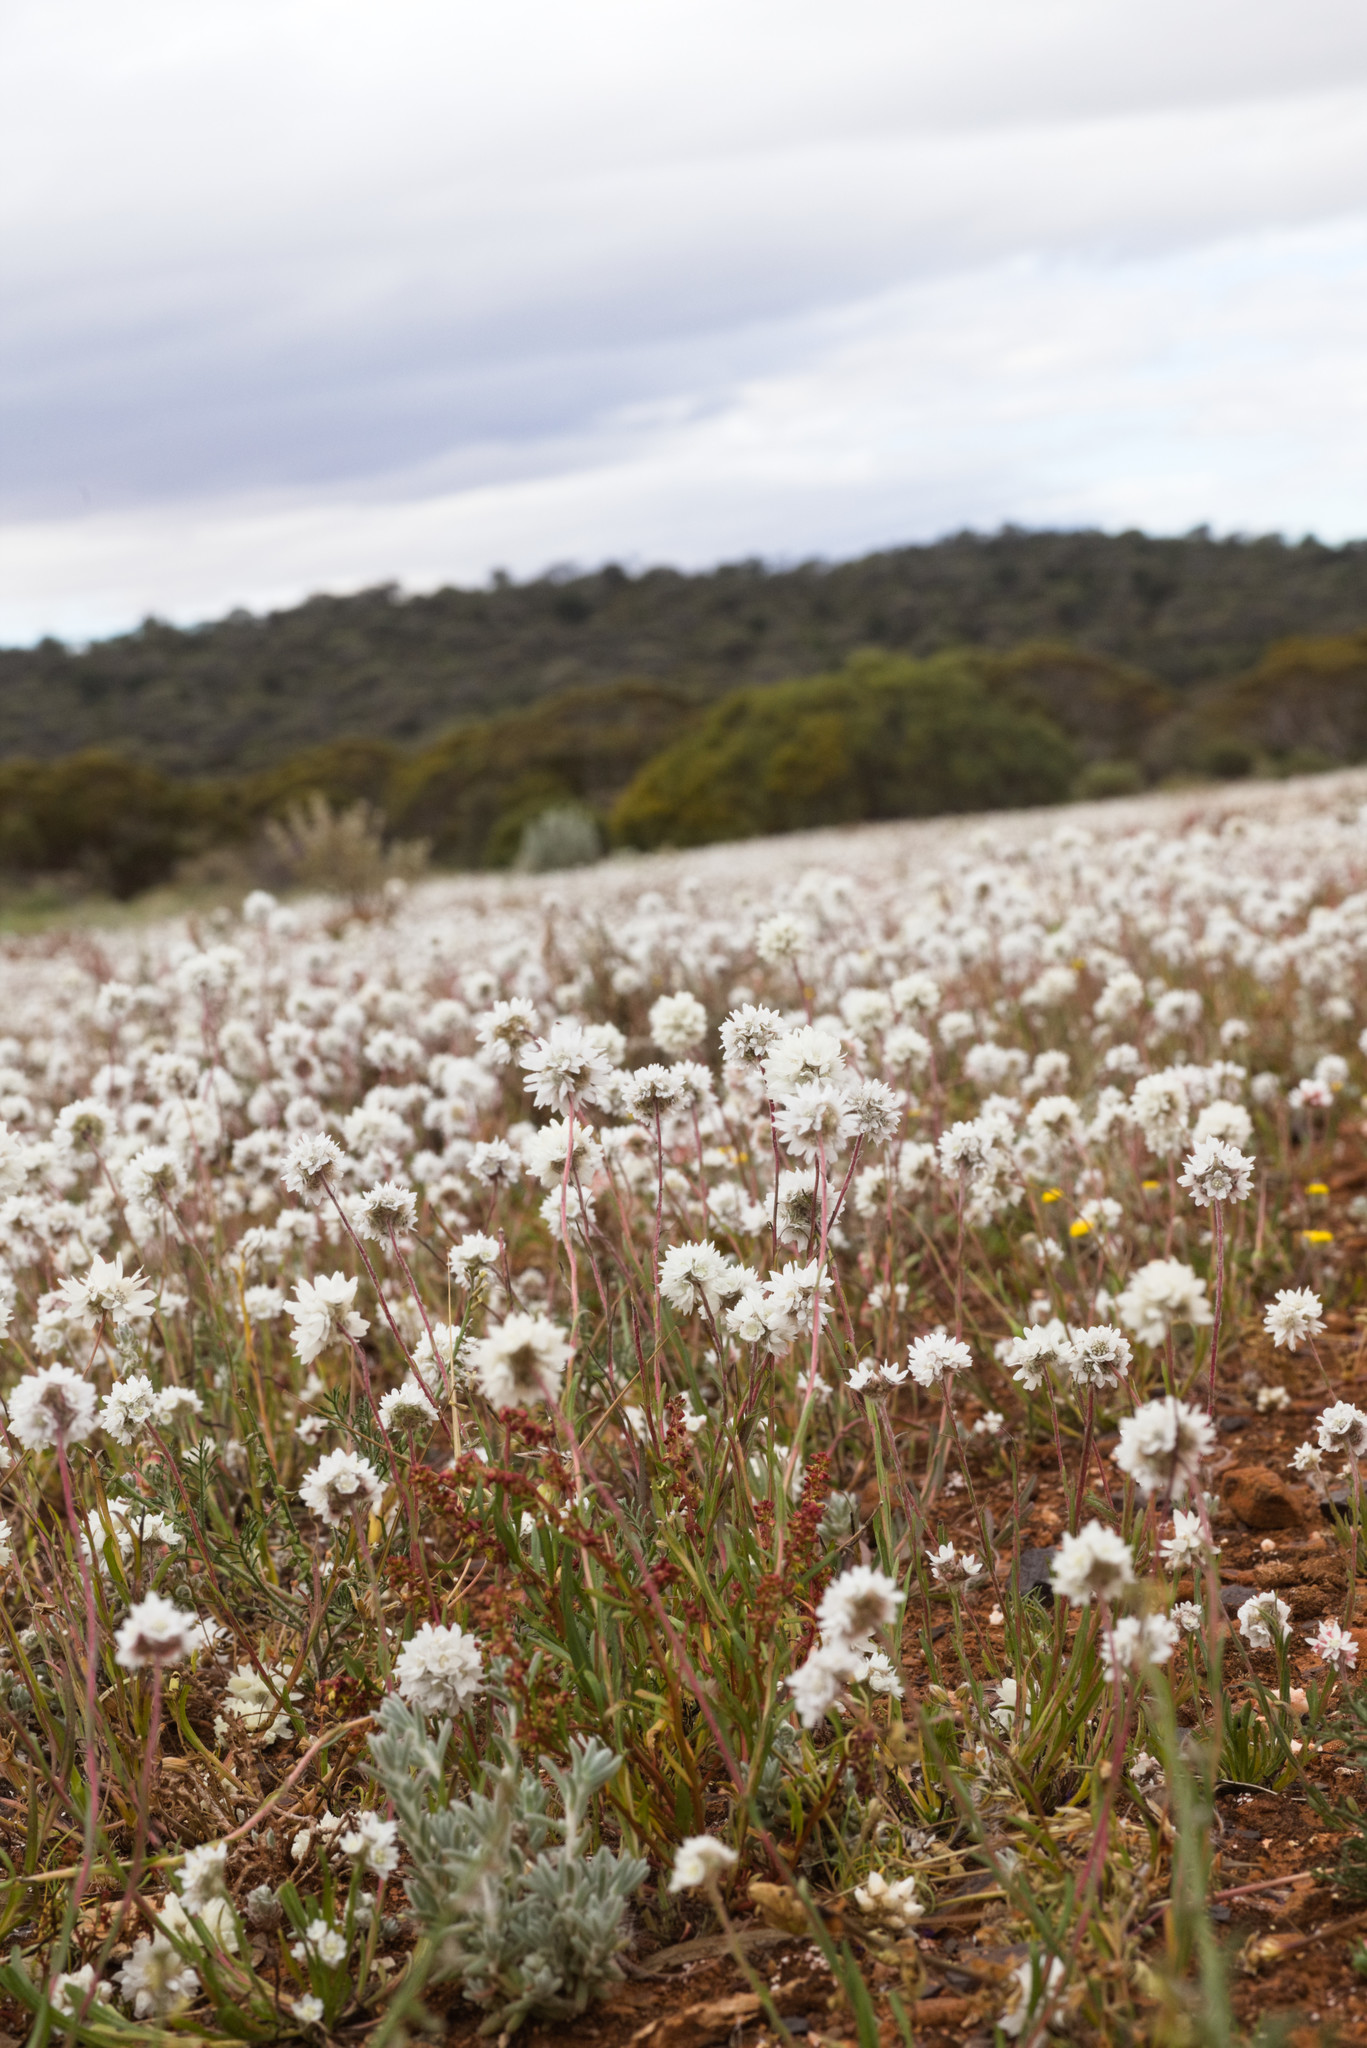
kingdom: Plantae
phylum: Tracheophyta
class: Magnoliopsida
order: Asterales
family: Asteraceae
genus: Cephalipterum
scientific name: Cephalipterum drummondii
